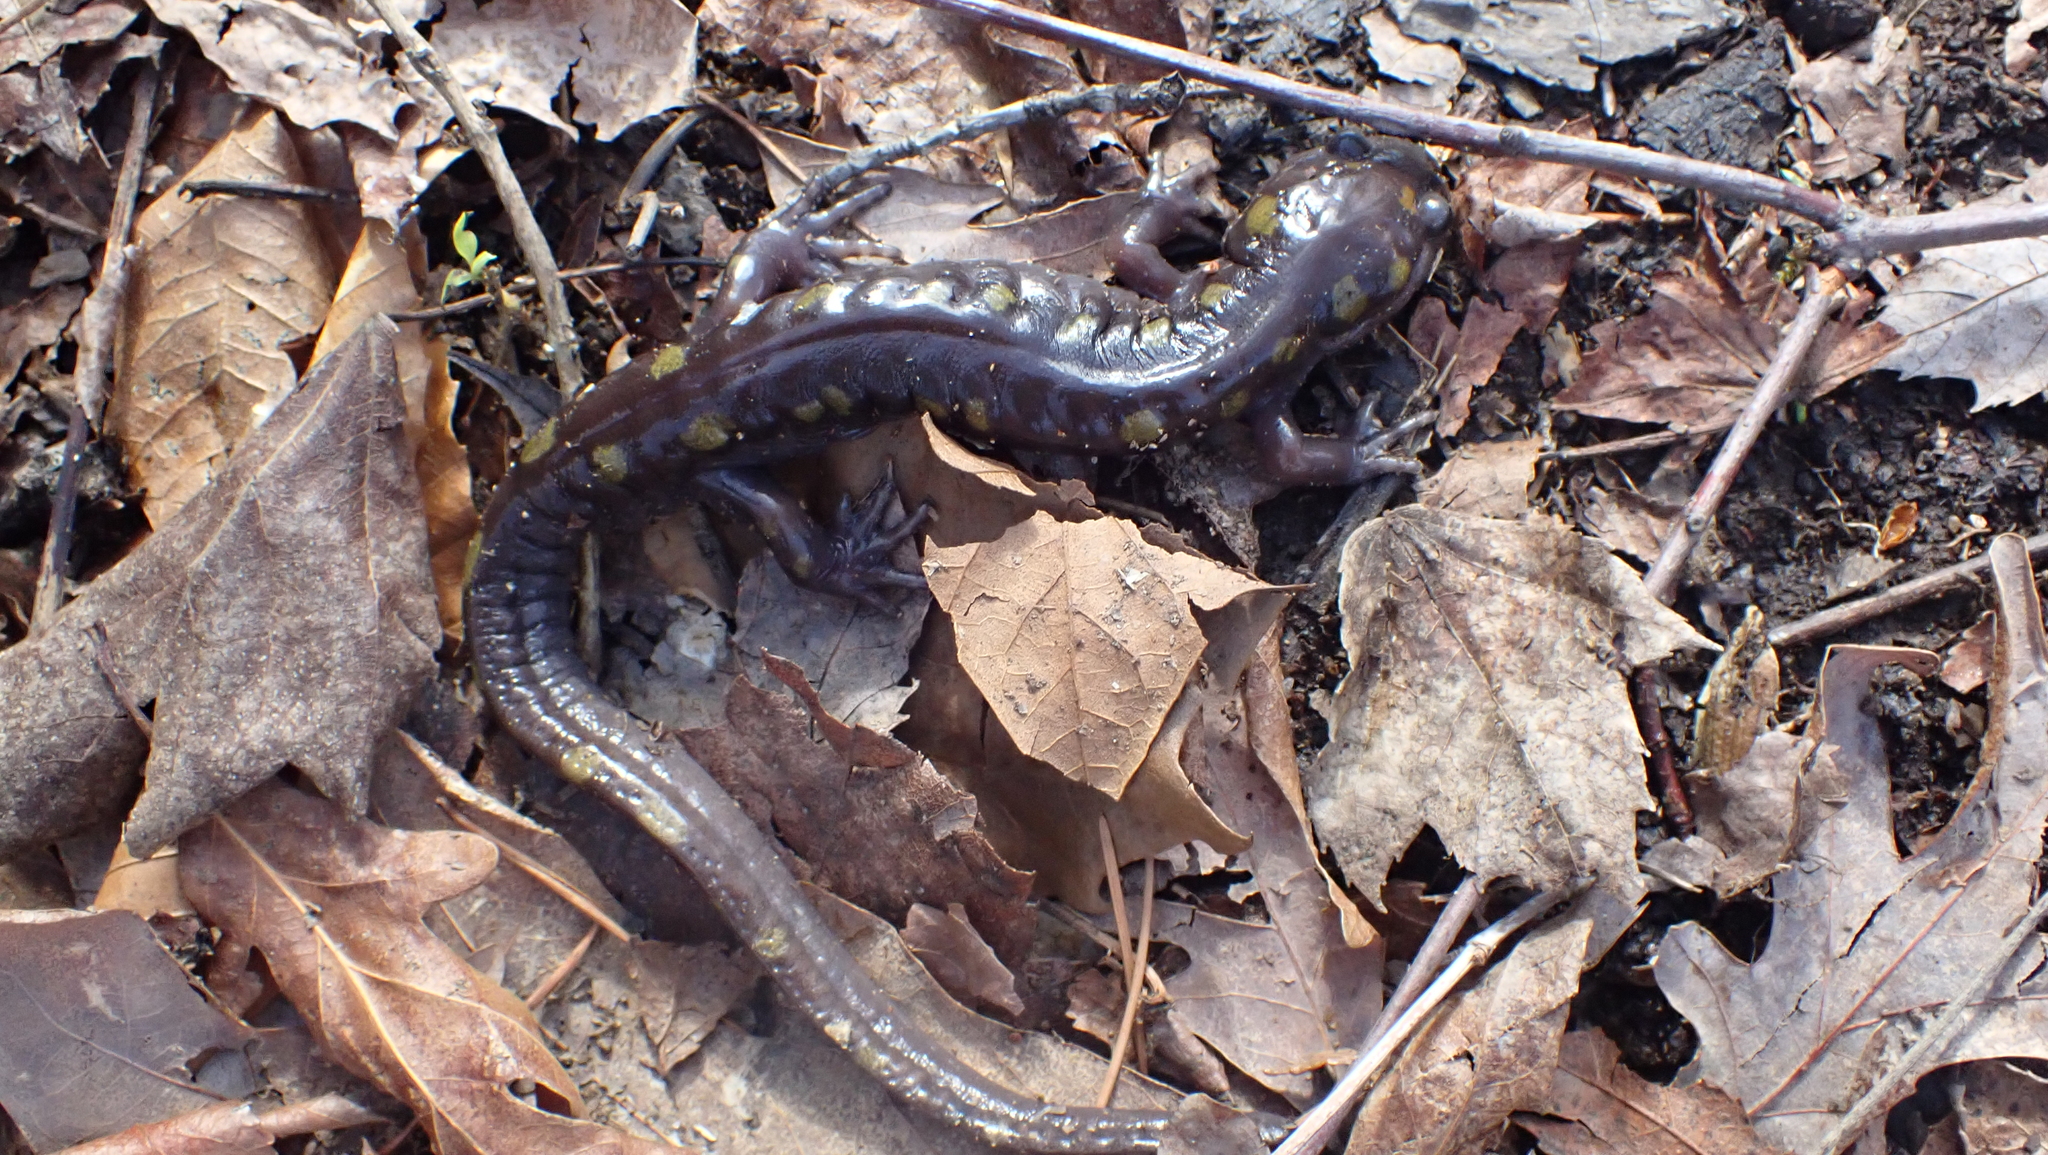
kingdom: Animalia
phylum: Chordata
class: Amphibia
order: Caudata
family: Ambystomatidae
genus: Ambystoma
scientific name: Ambystoma maculatum
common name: Spotted salamander
